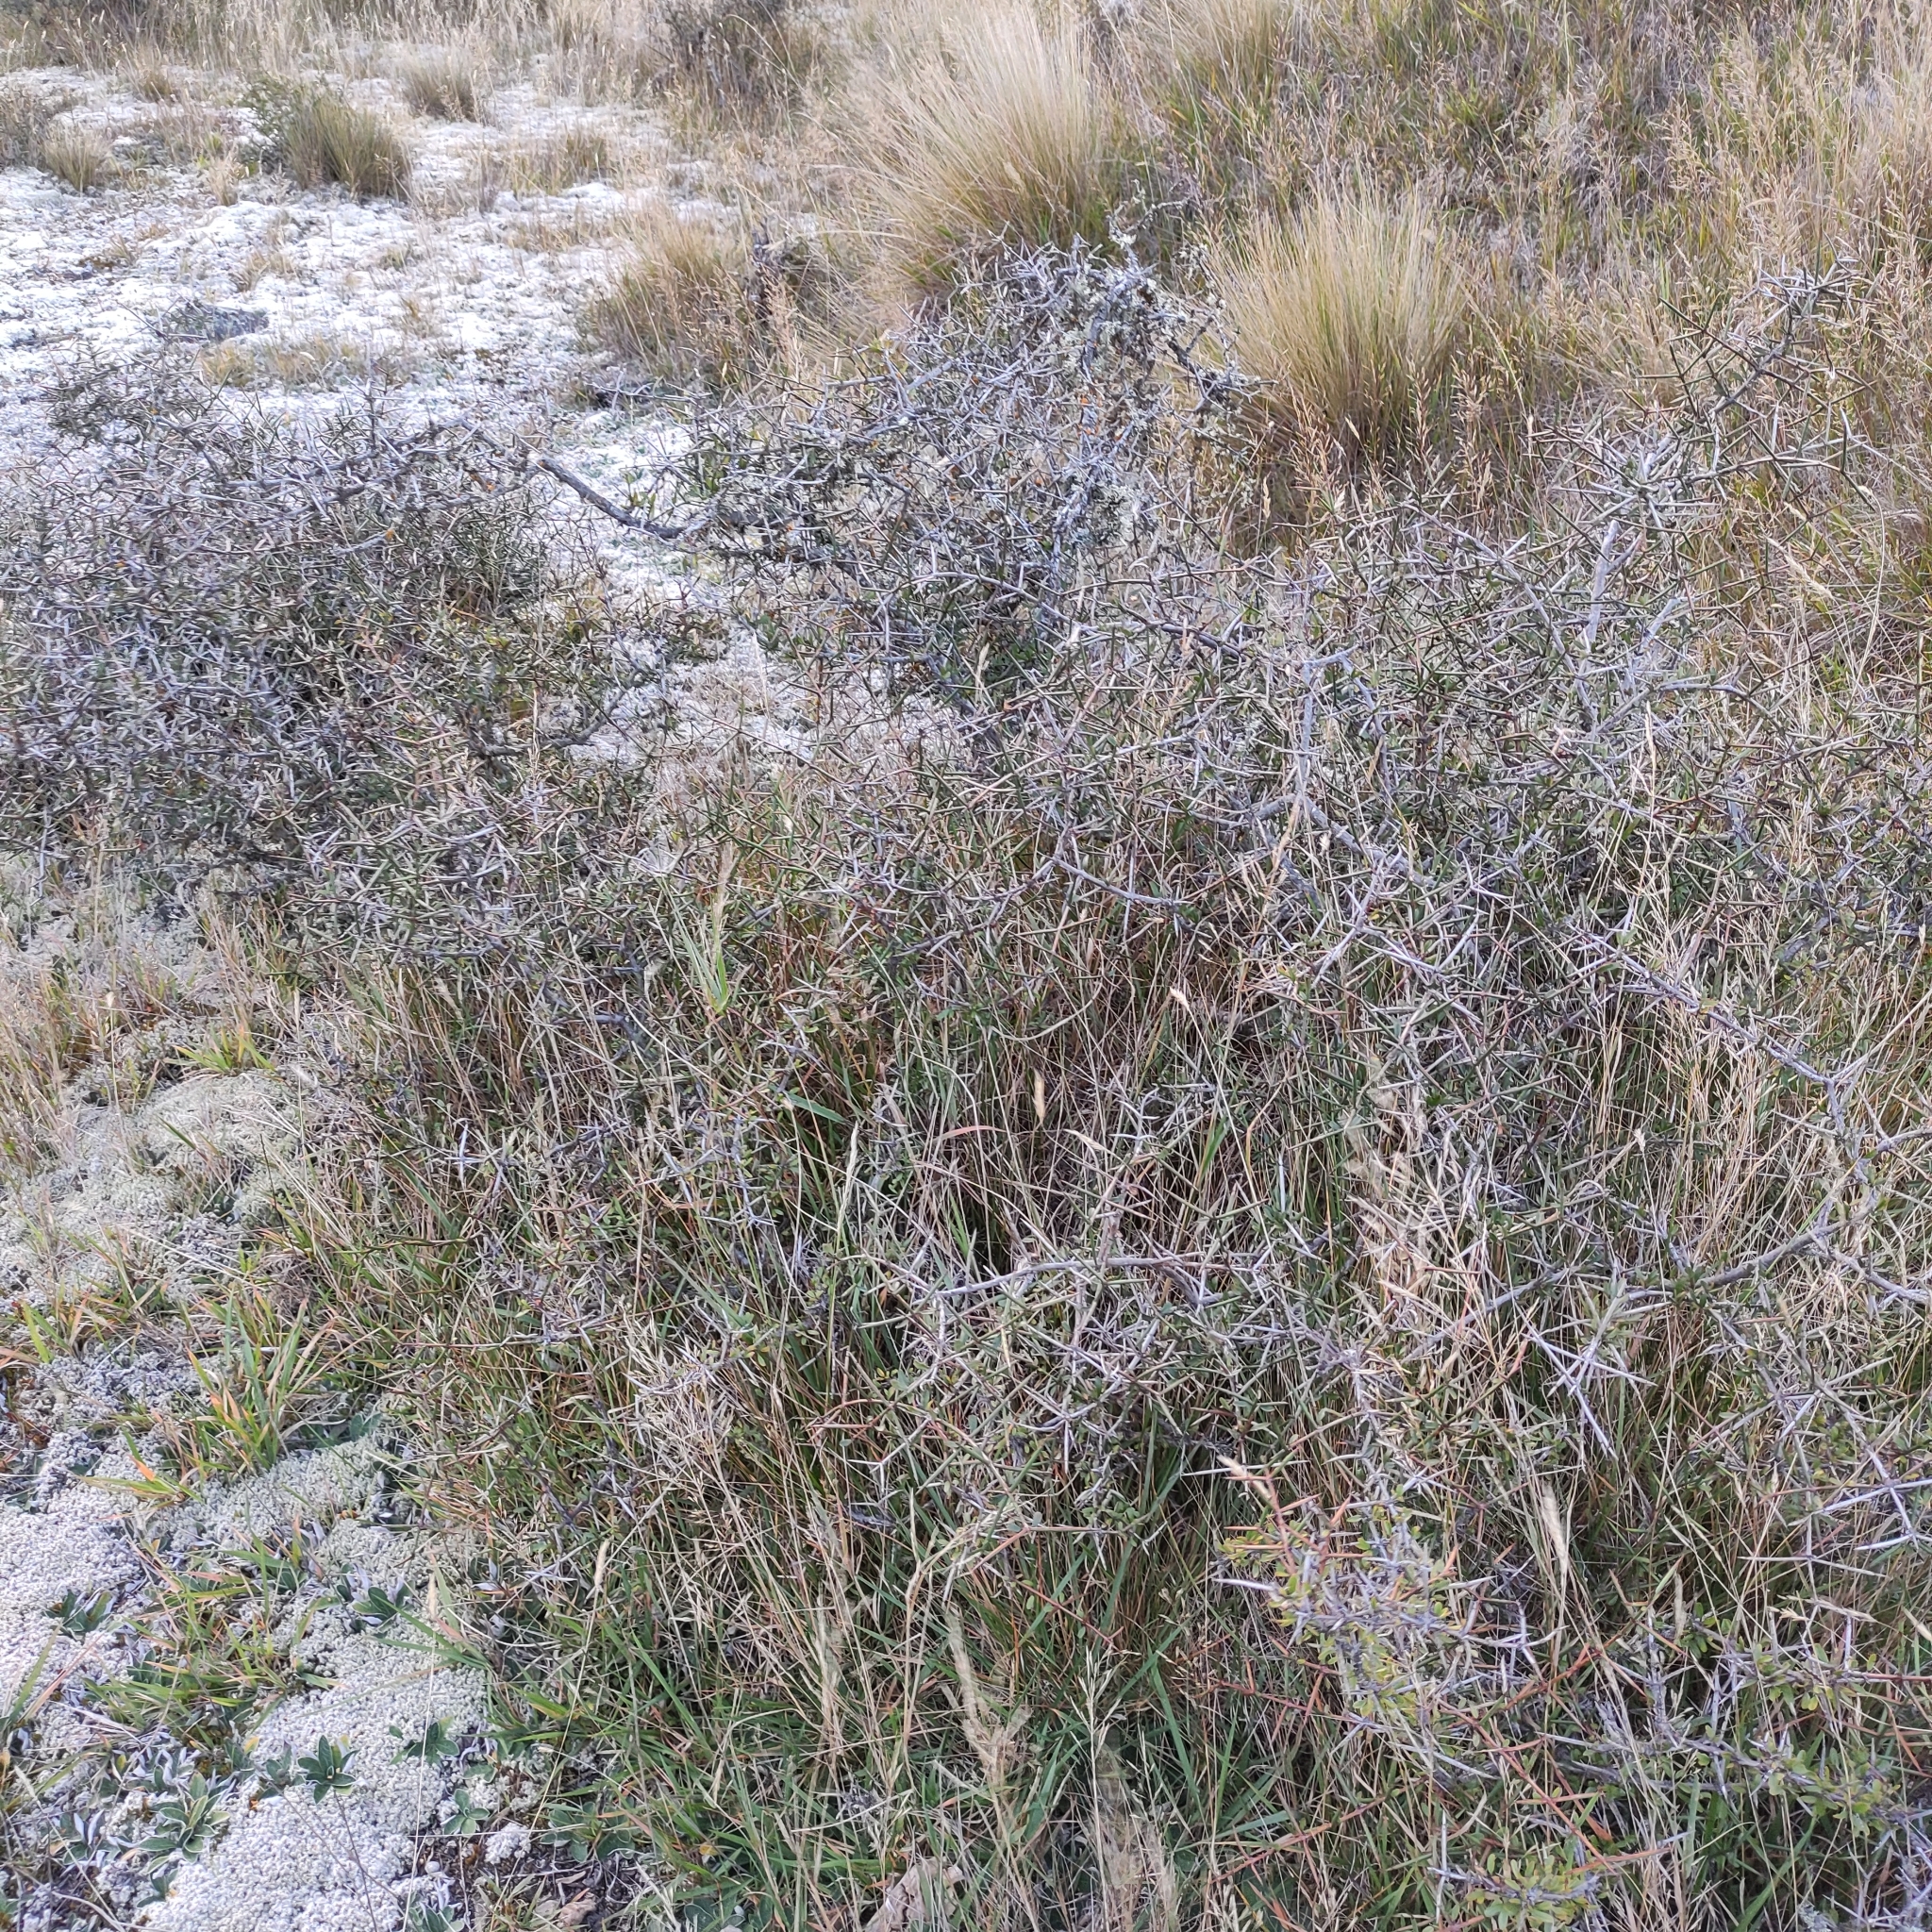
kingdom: Plantae
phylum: Tracheophyta
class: Magnoliopsida
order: Rosales
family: Rhamnaceae
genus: Discaria
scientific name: Discaria toumatou
